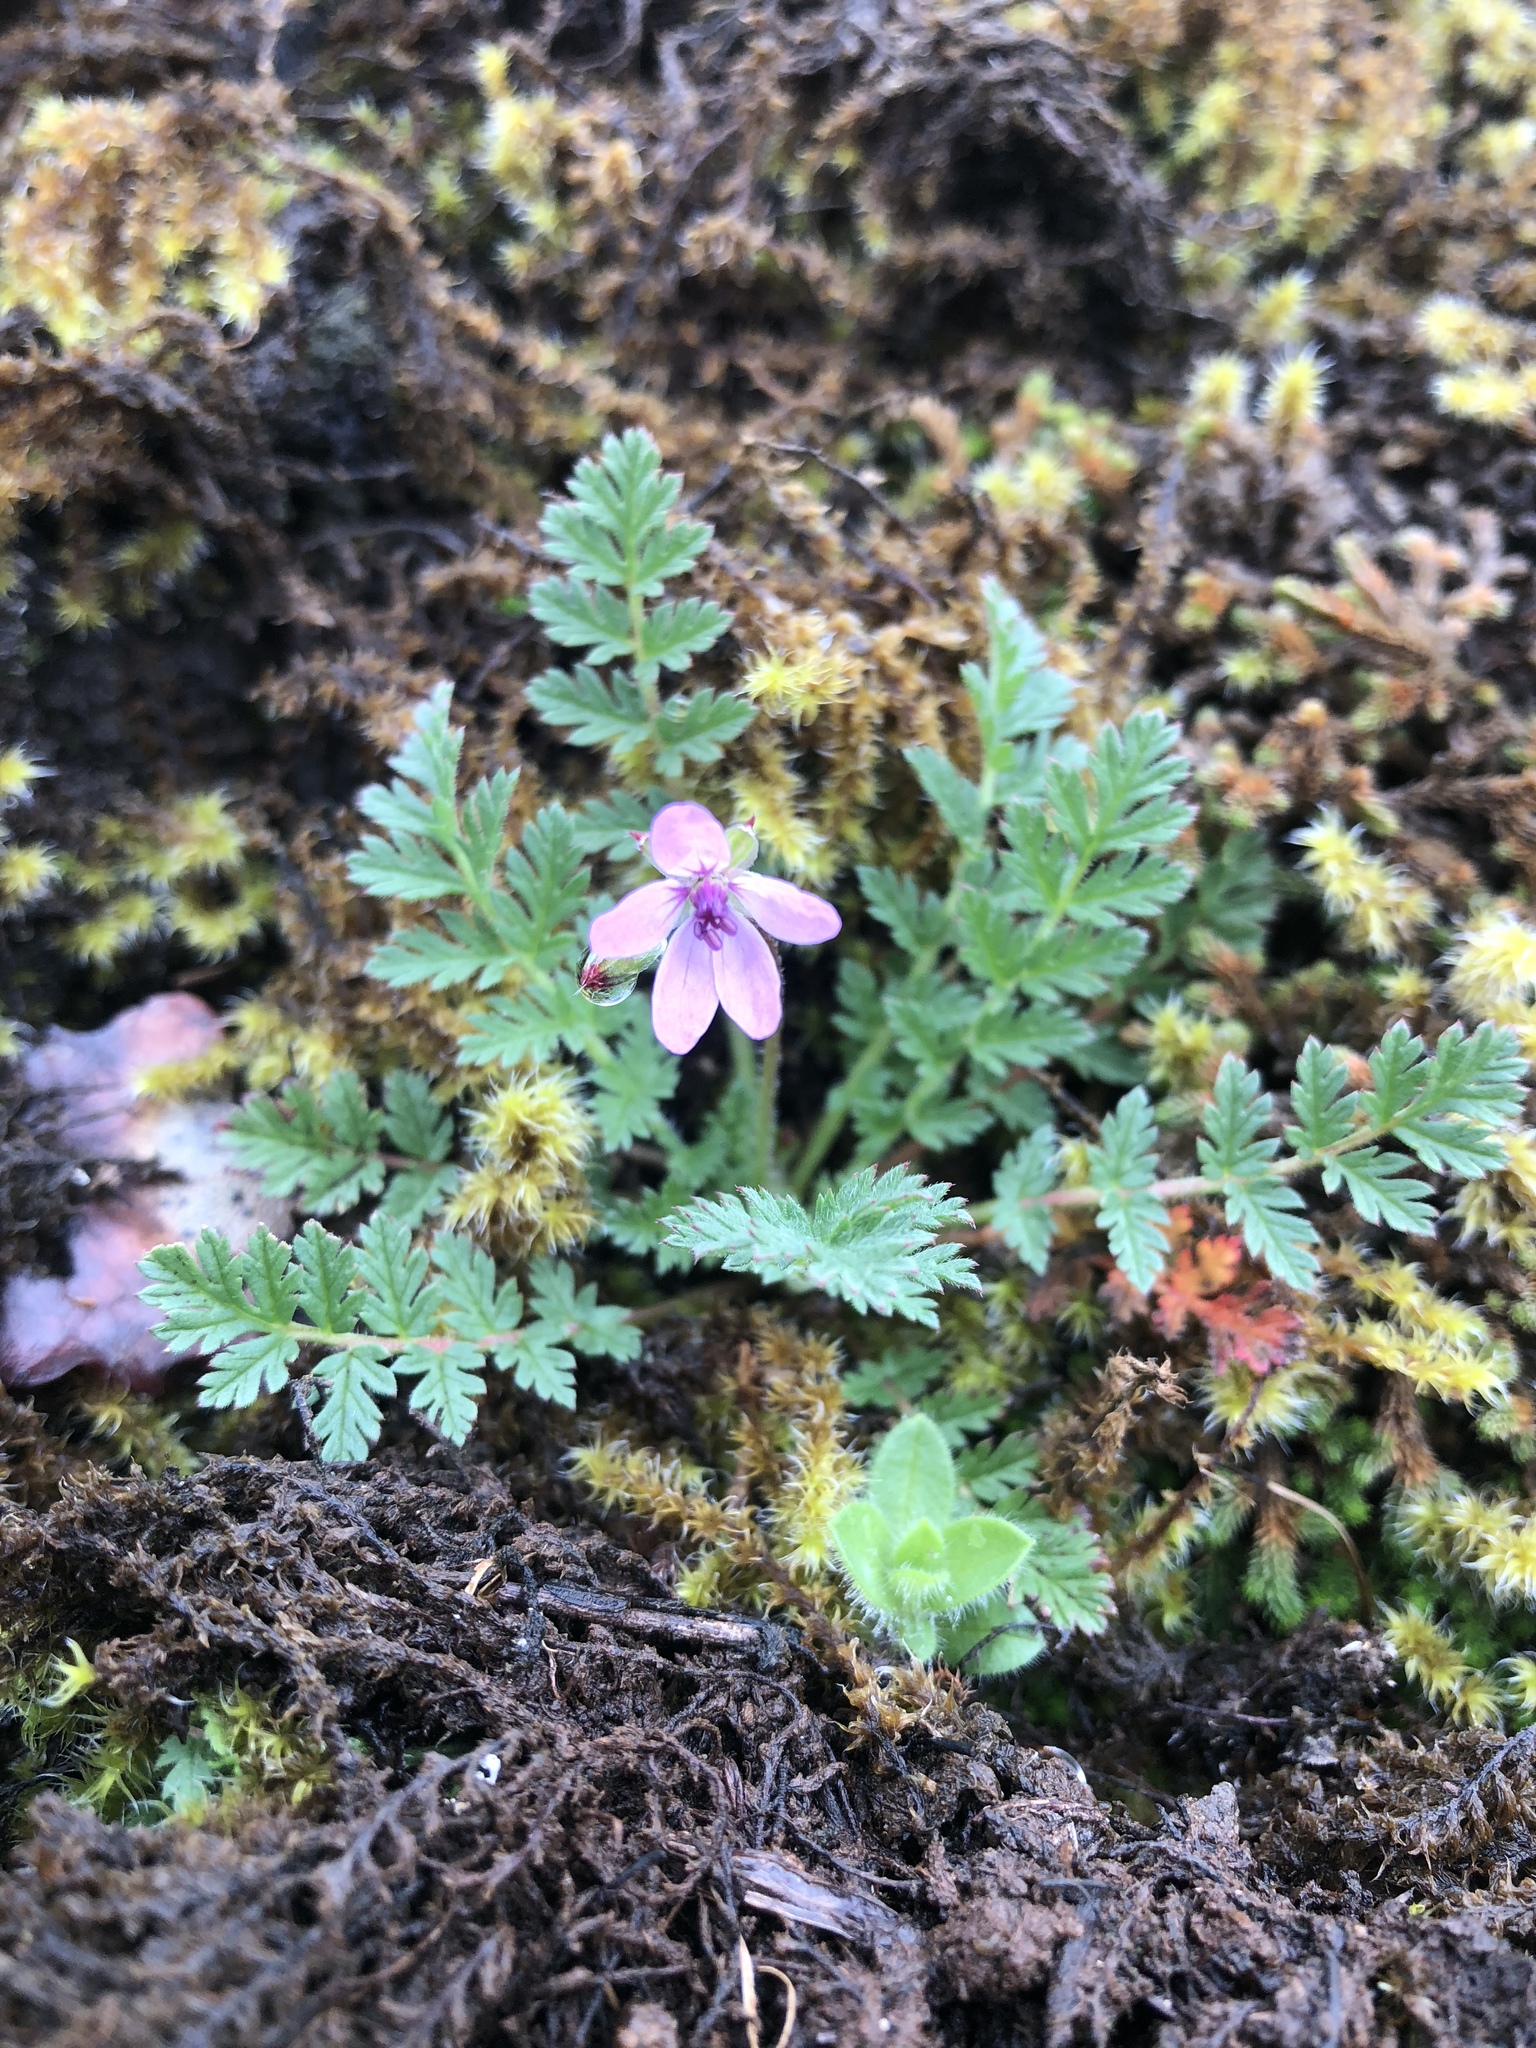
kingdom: Plantae
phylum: Tracheophyta
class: Magnoliopsida
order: Geraniales
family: Geraniaceae
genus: Erodium
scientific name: Erodium cicutarium
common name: Common stork's-bill
